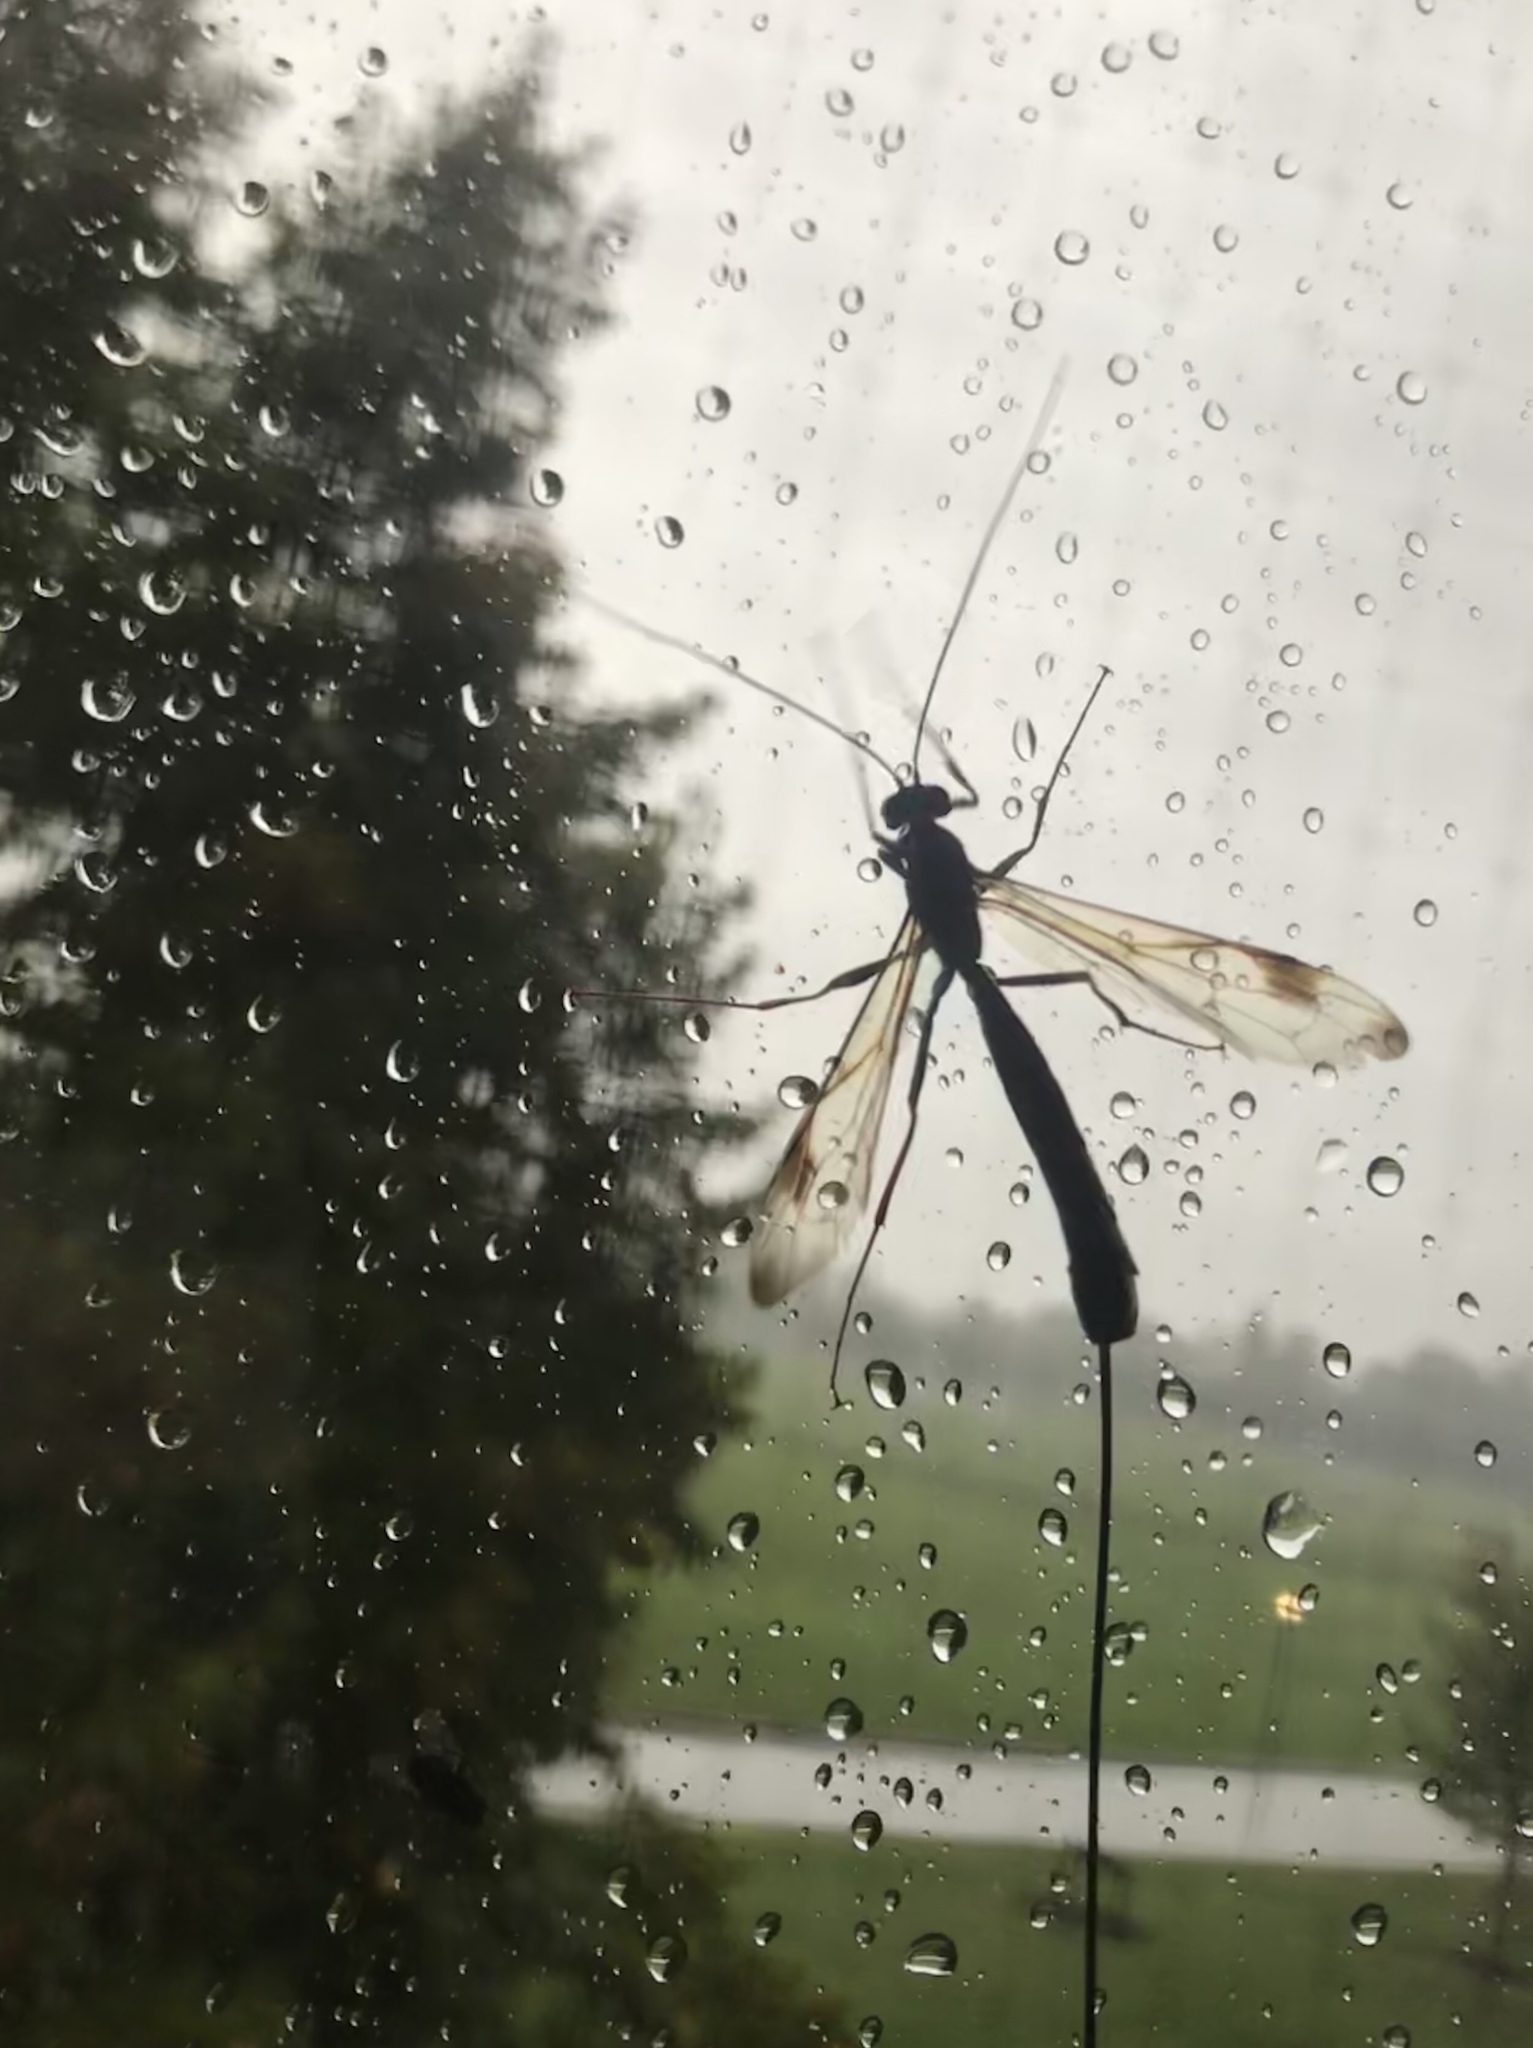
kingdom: Animalia
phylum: Arthropoda
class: Insecta
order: Hymenoptera
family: Ichneumonidae
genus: Megarhyssa
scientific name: Megarhyssa macrura
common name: Long-tailed giant ichneumonid wasp
